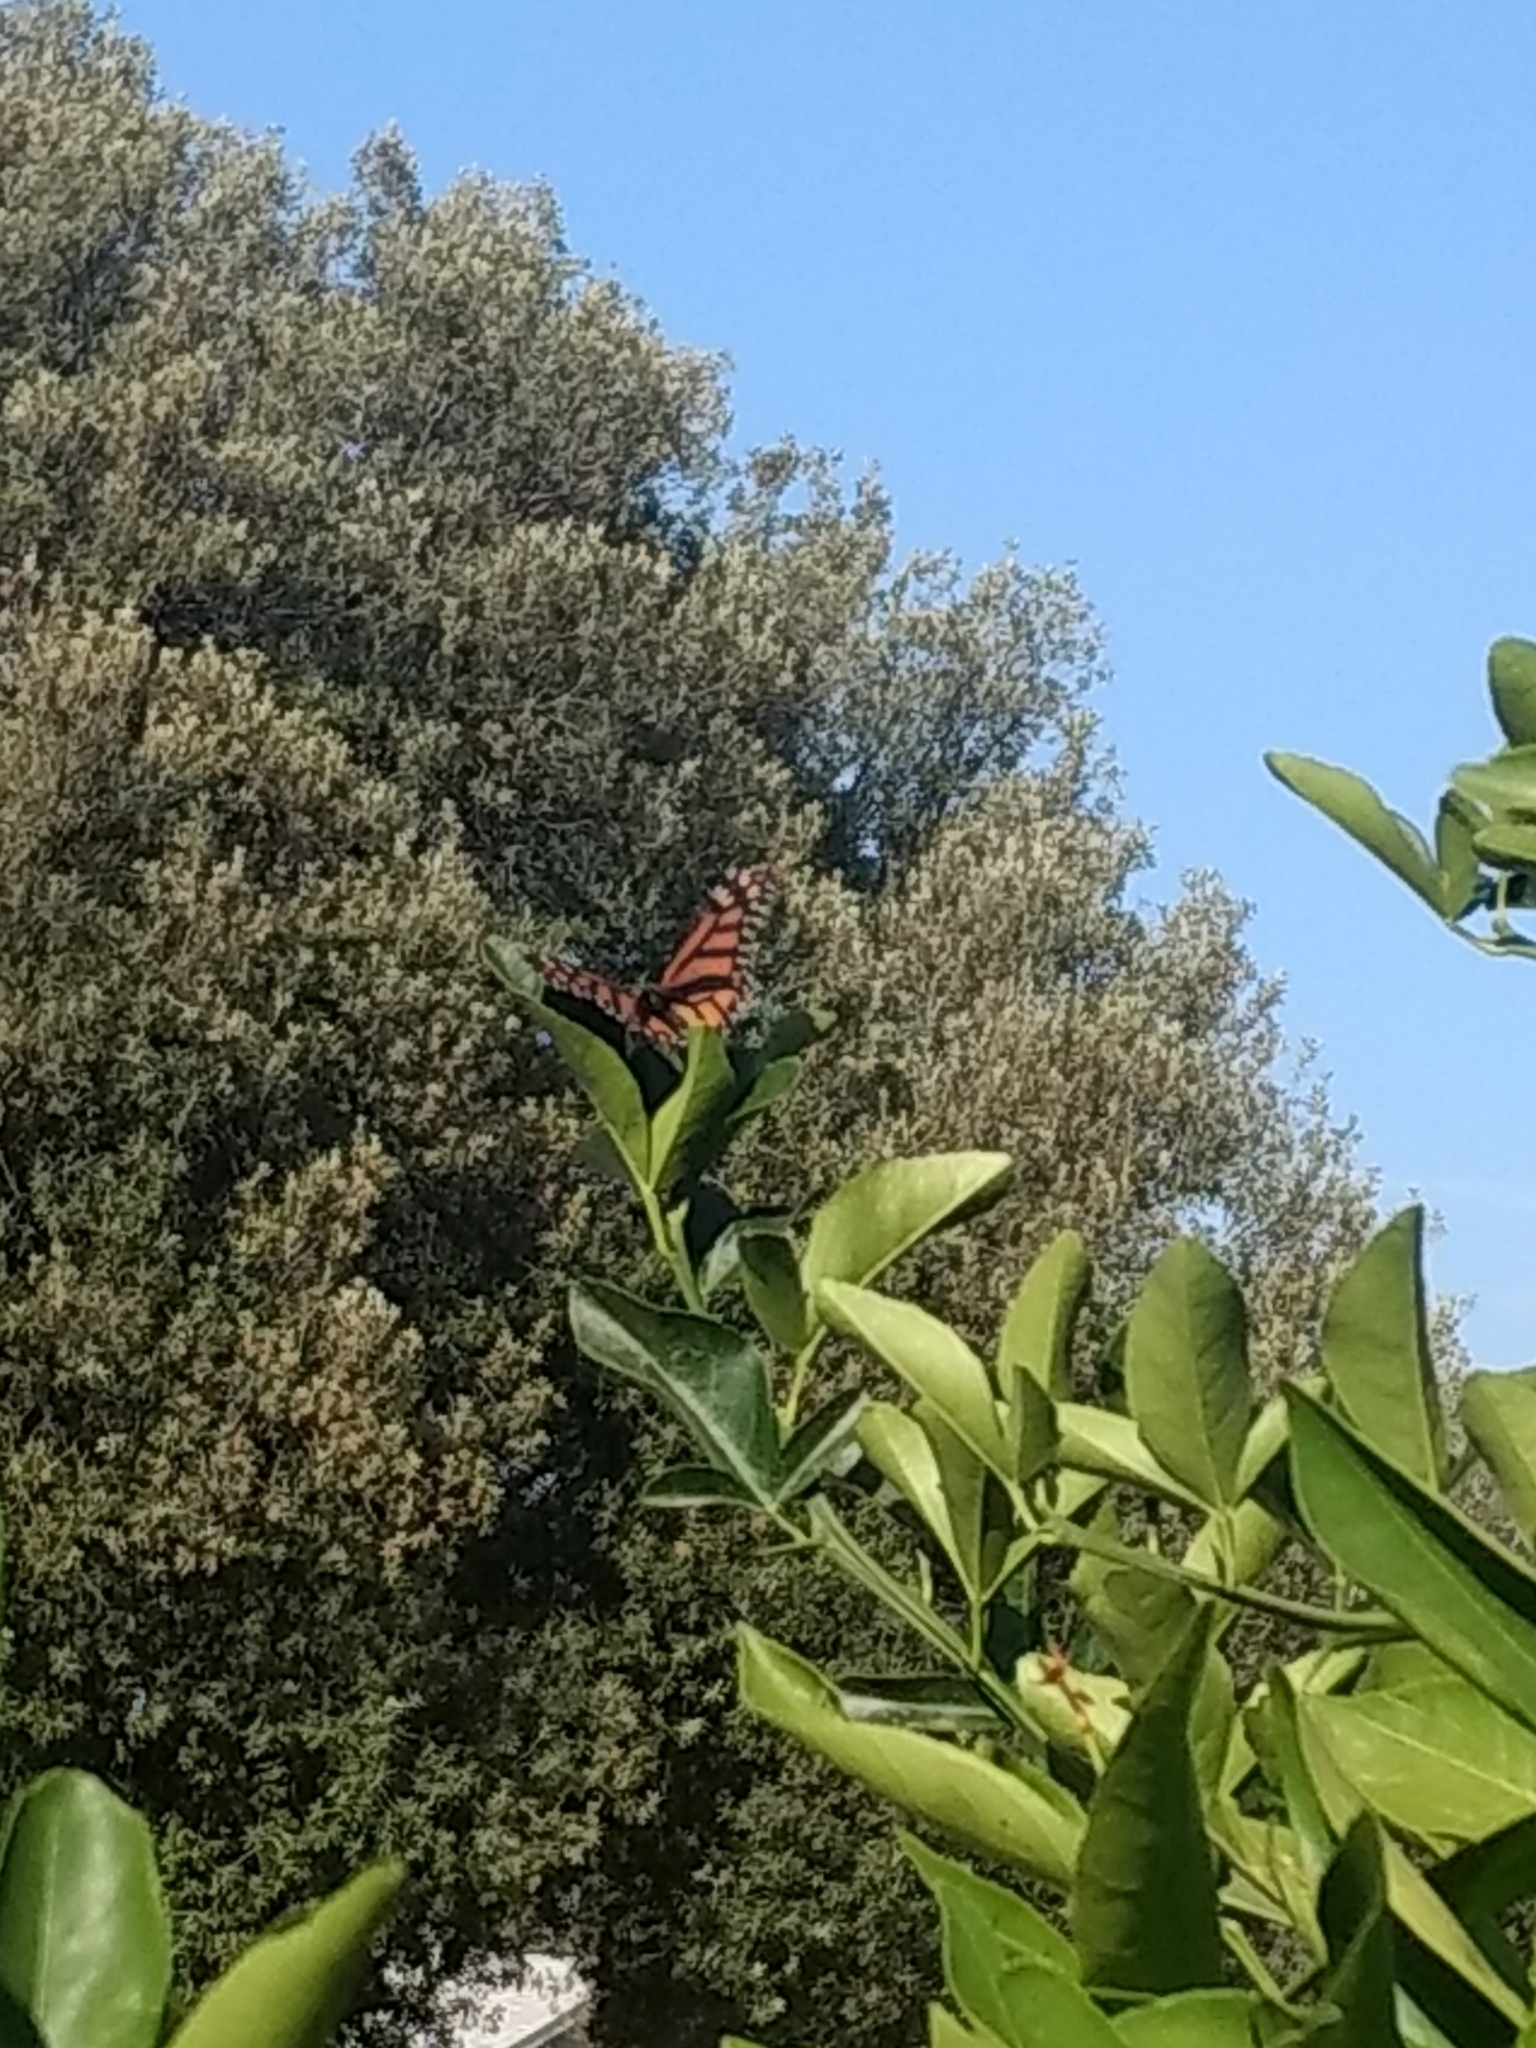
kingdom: Animalia
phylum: Arthropoda
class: Insecta
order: Lepidoptera
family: Nymphalidae
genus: Danaus
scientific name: Danaus plexippus
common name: Monarch
